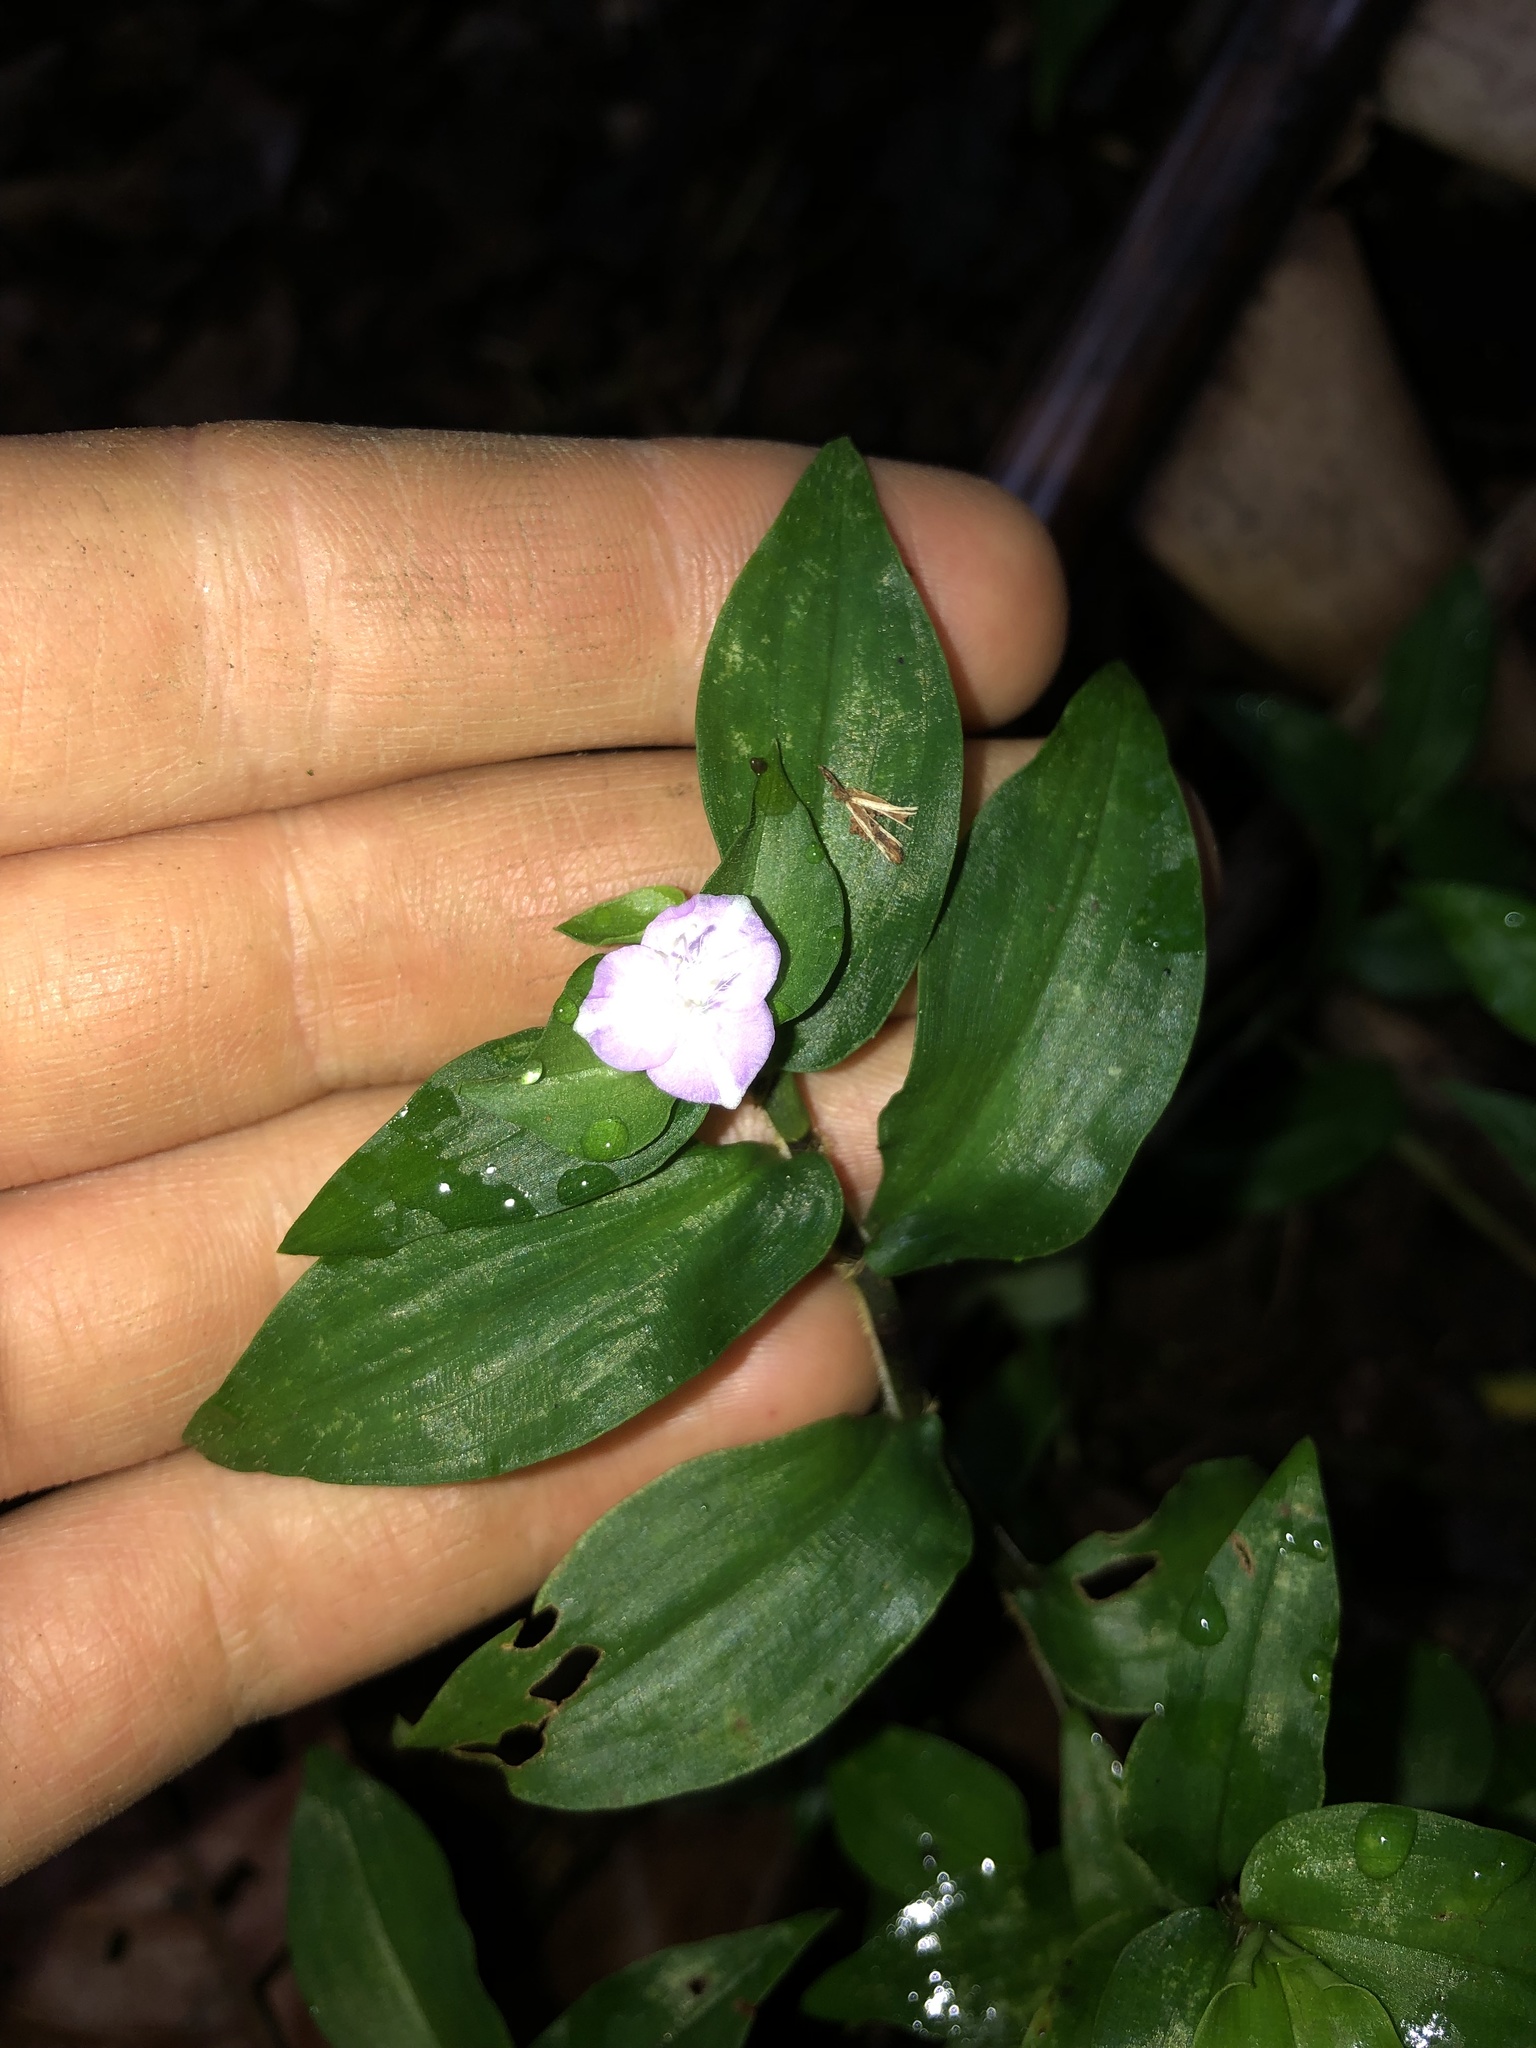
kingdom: Plantae
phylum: Tracheophyta
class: Liliopsida
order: Commelinales
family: Commelinaceae
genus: Tradescantia
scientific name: Tradescantia poelliae
